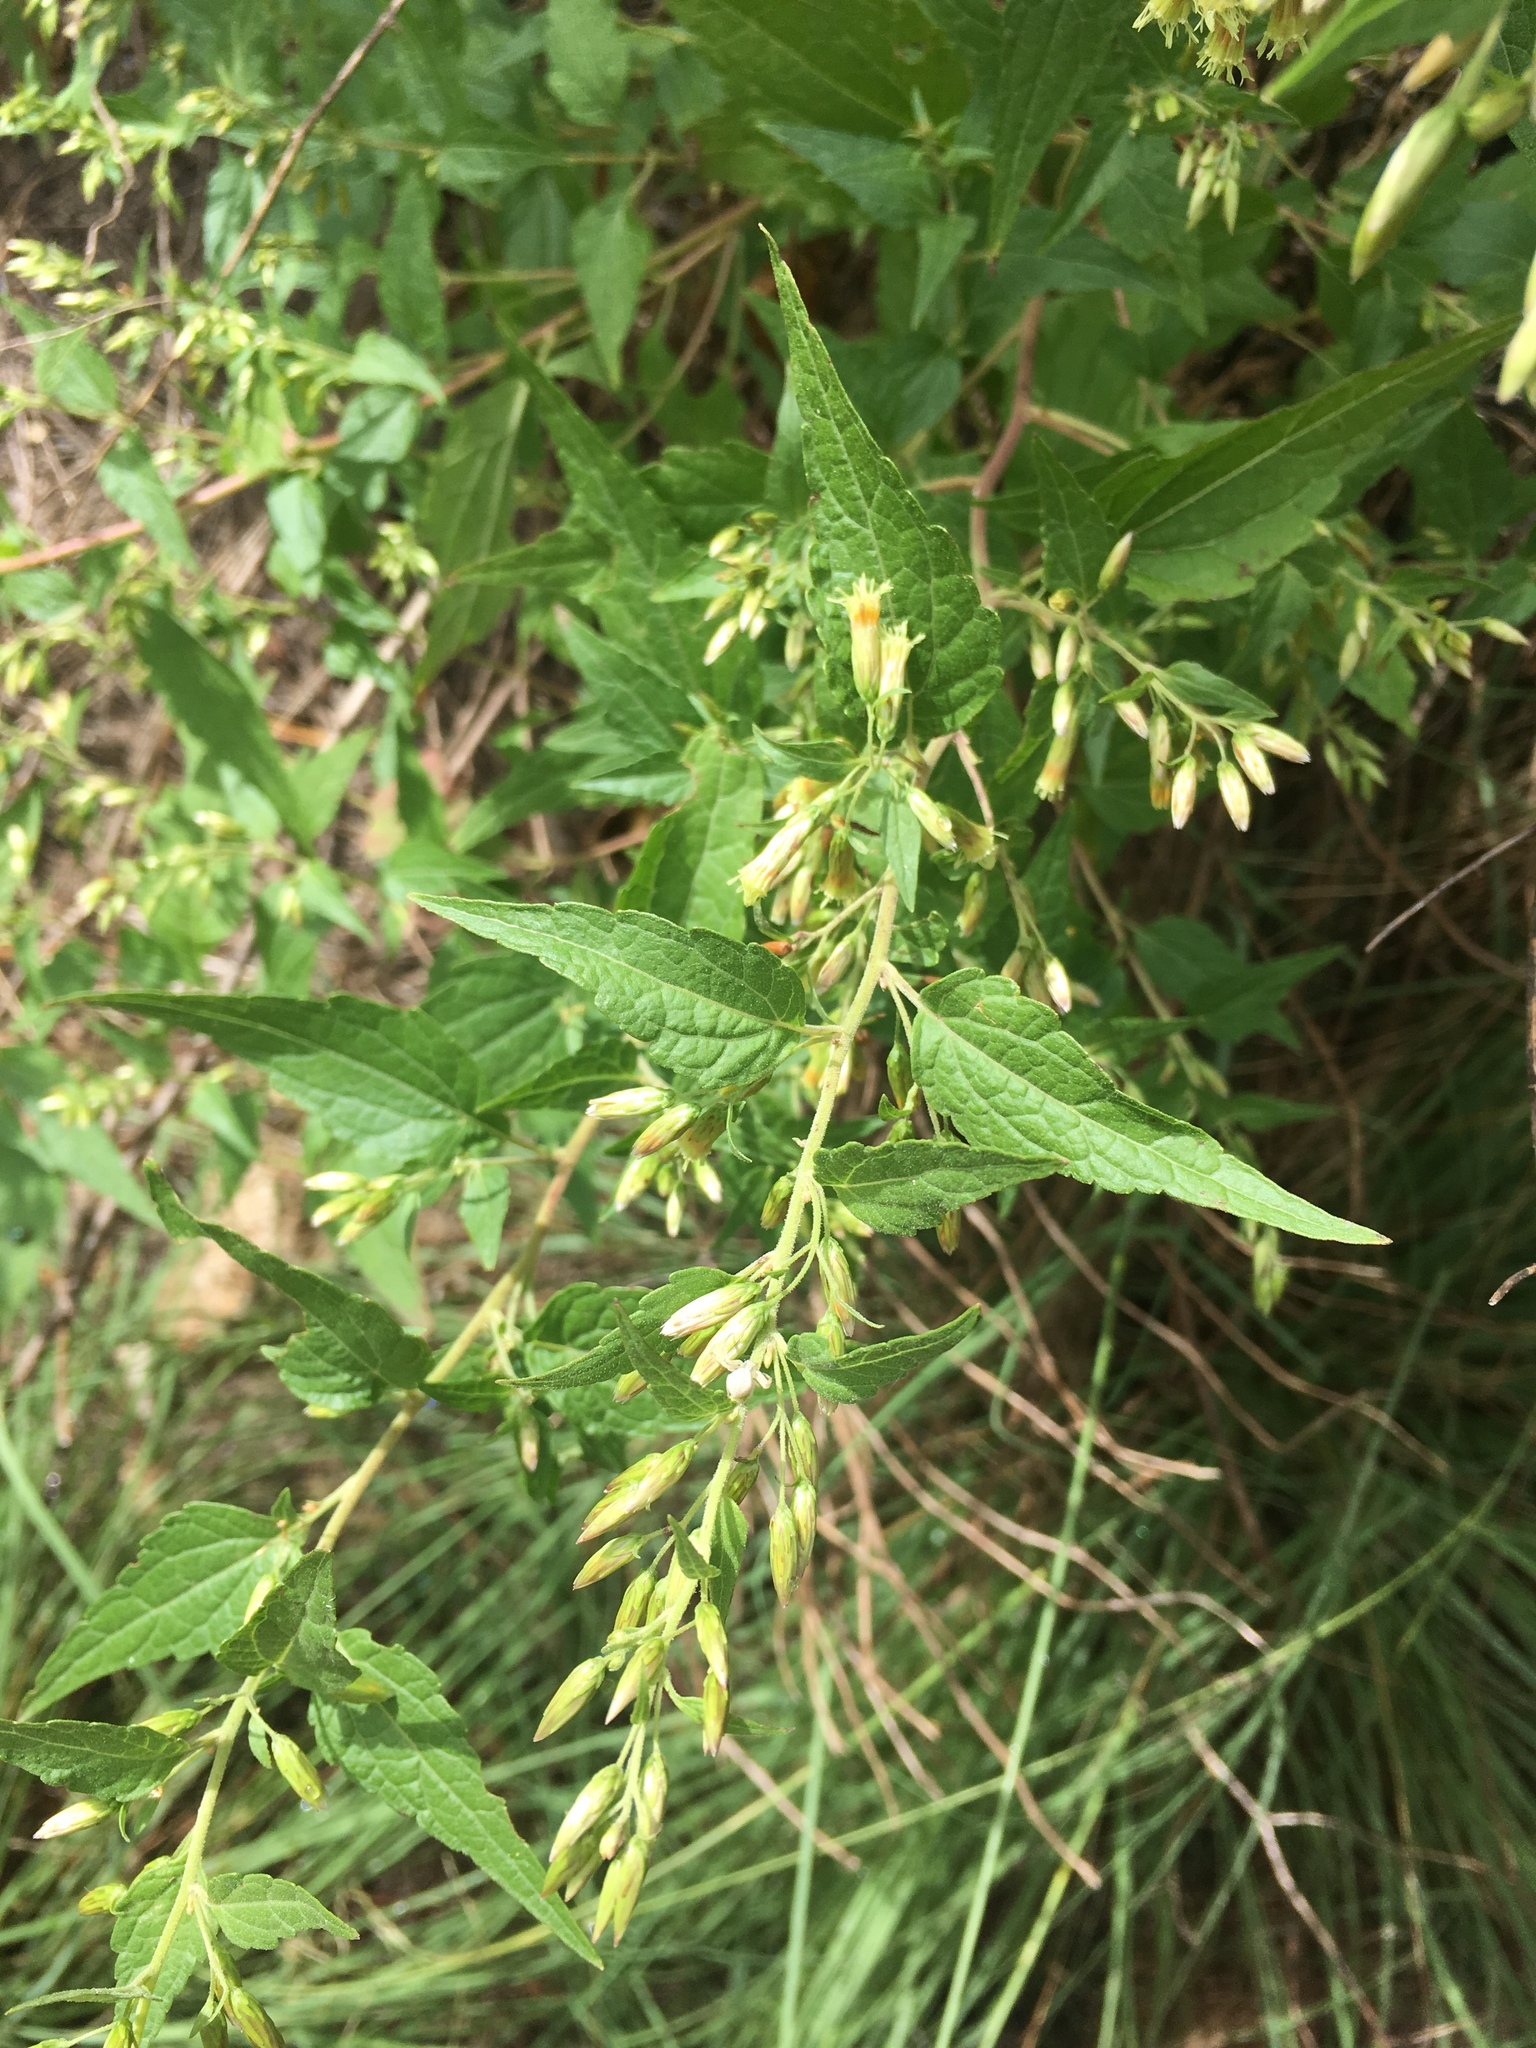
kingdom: Plantae
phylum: Tracheophyta
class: Magnoliopsida
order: Asterales
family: Asteraceae
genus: Brickellia
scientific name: Brickellia rusbyi
